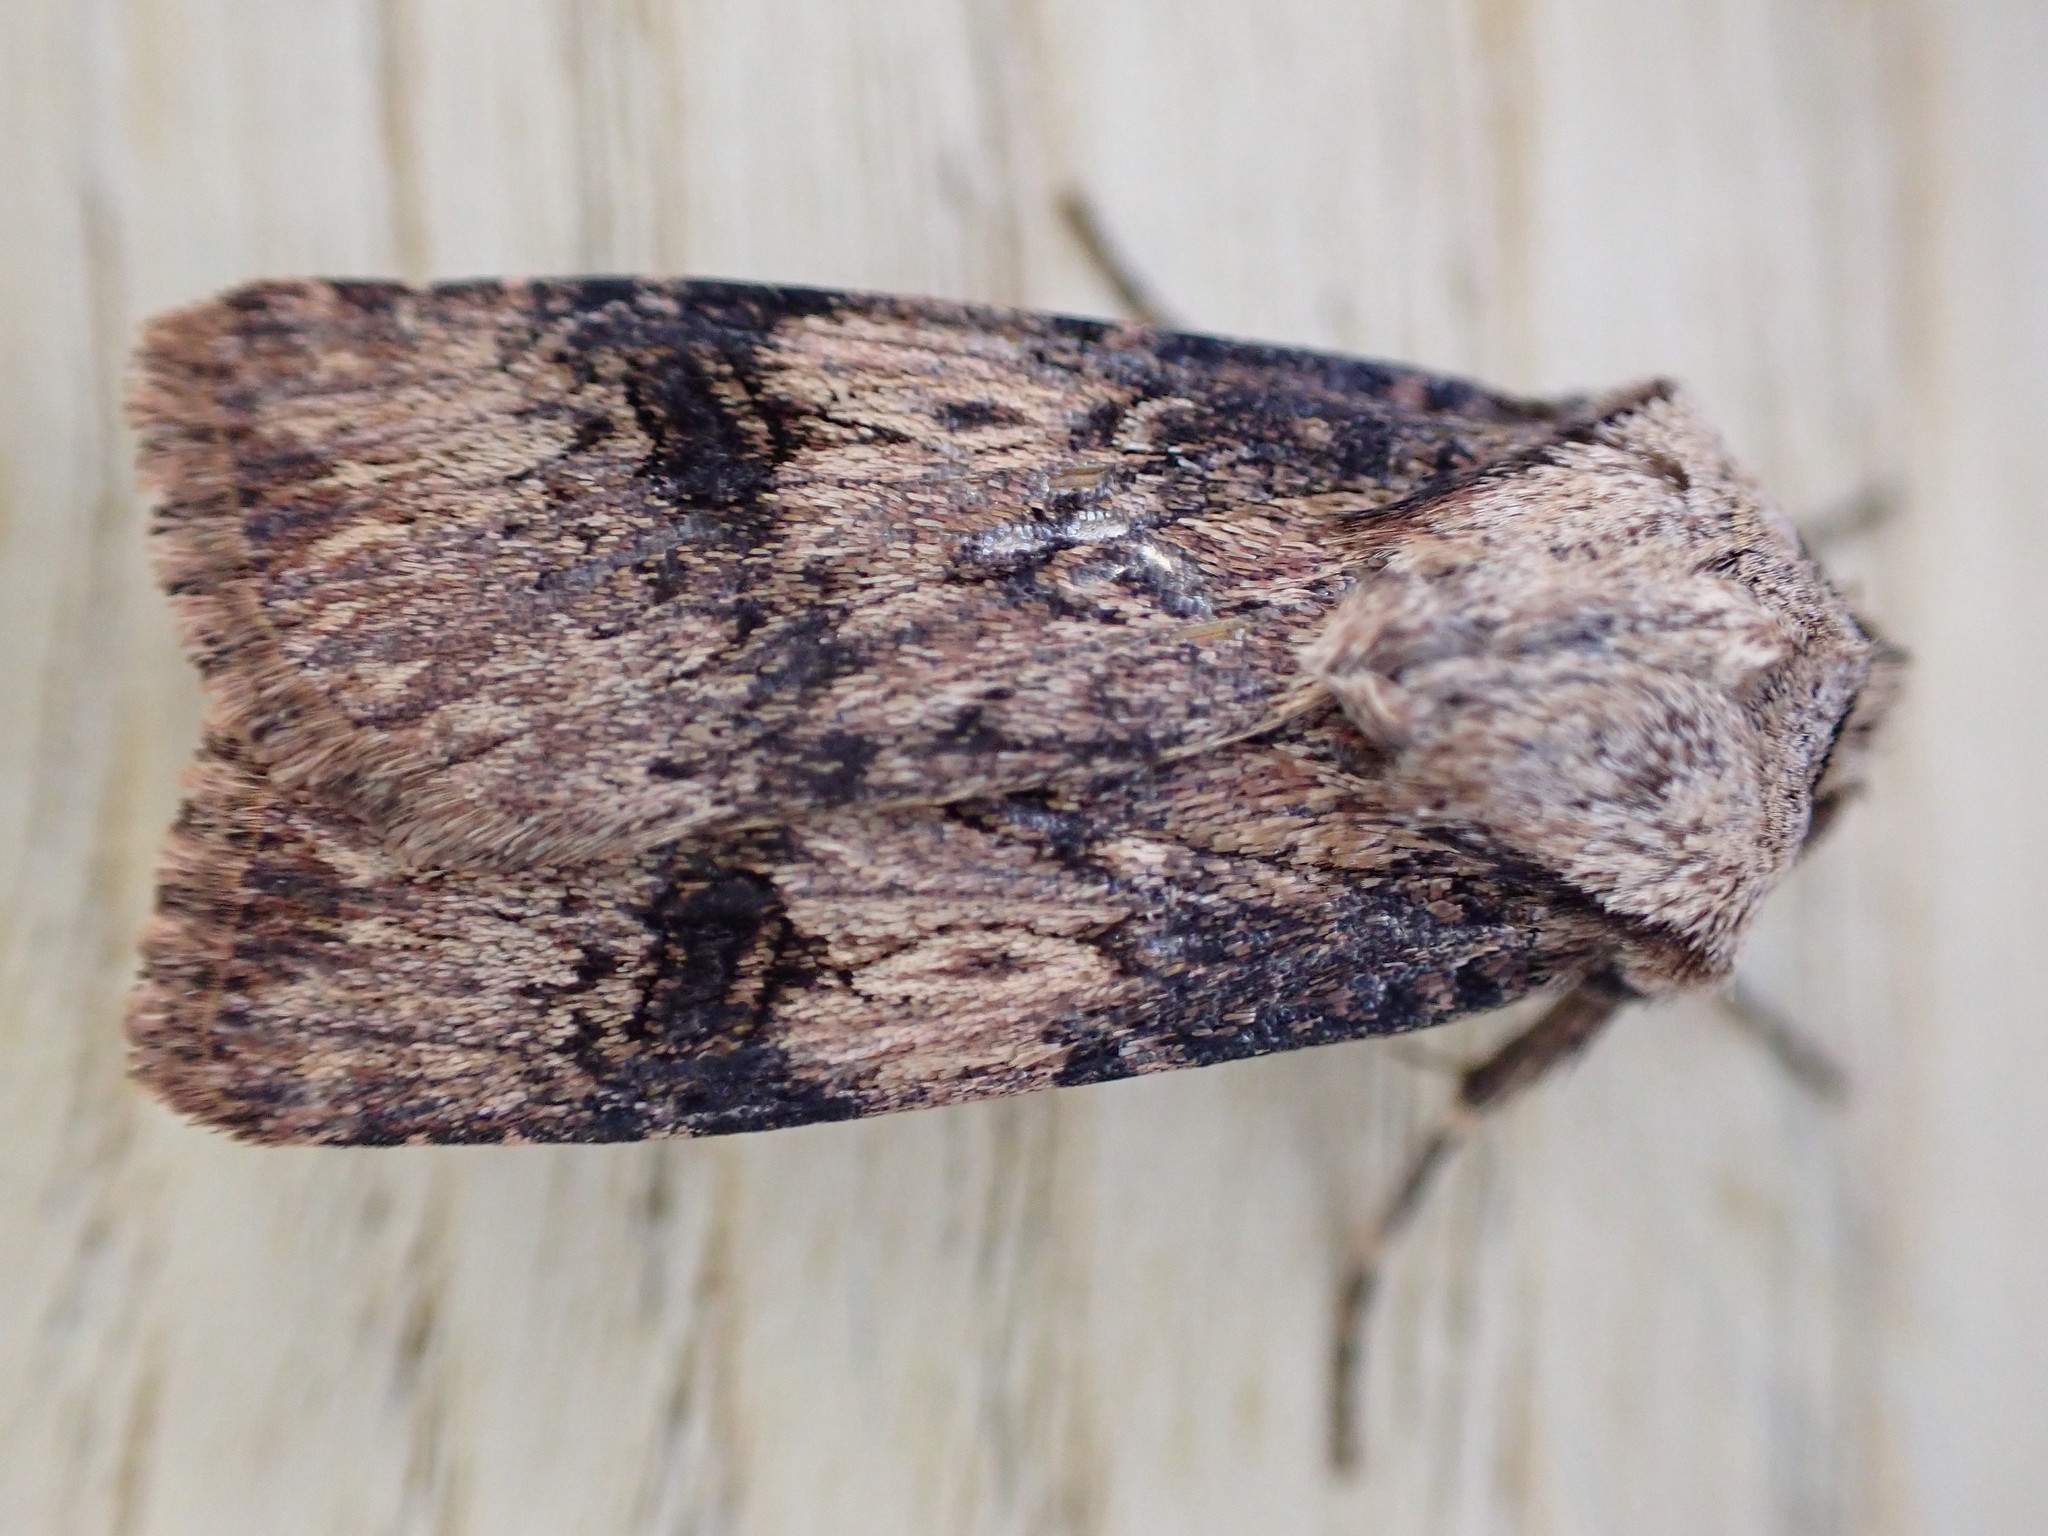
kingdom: Animalia
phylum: Arthropoda
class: Insecta
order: Lepidoptera
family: Noctuidae
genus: Agrotis
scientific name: Agrotis puta
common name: Shuttle-shaped dart
